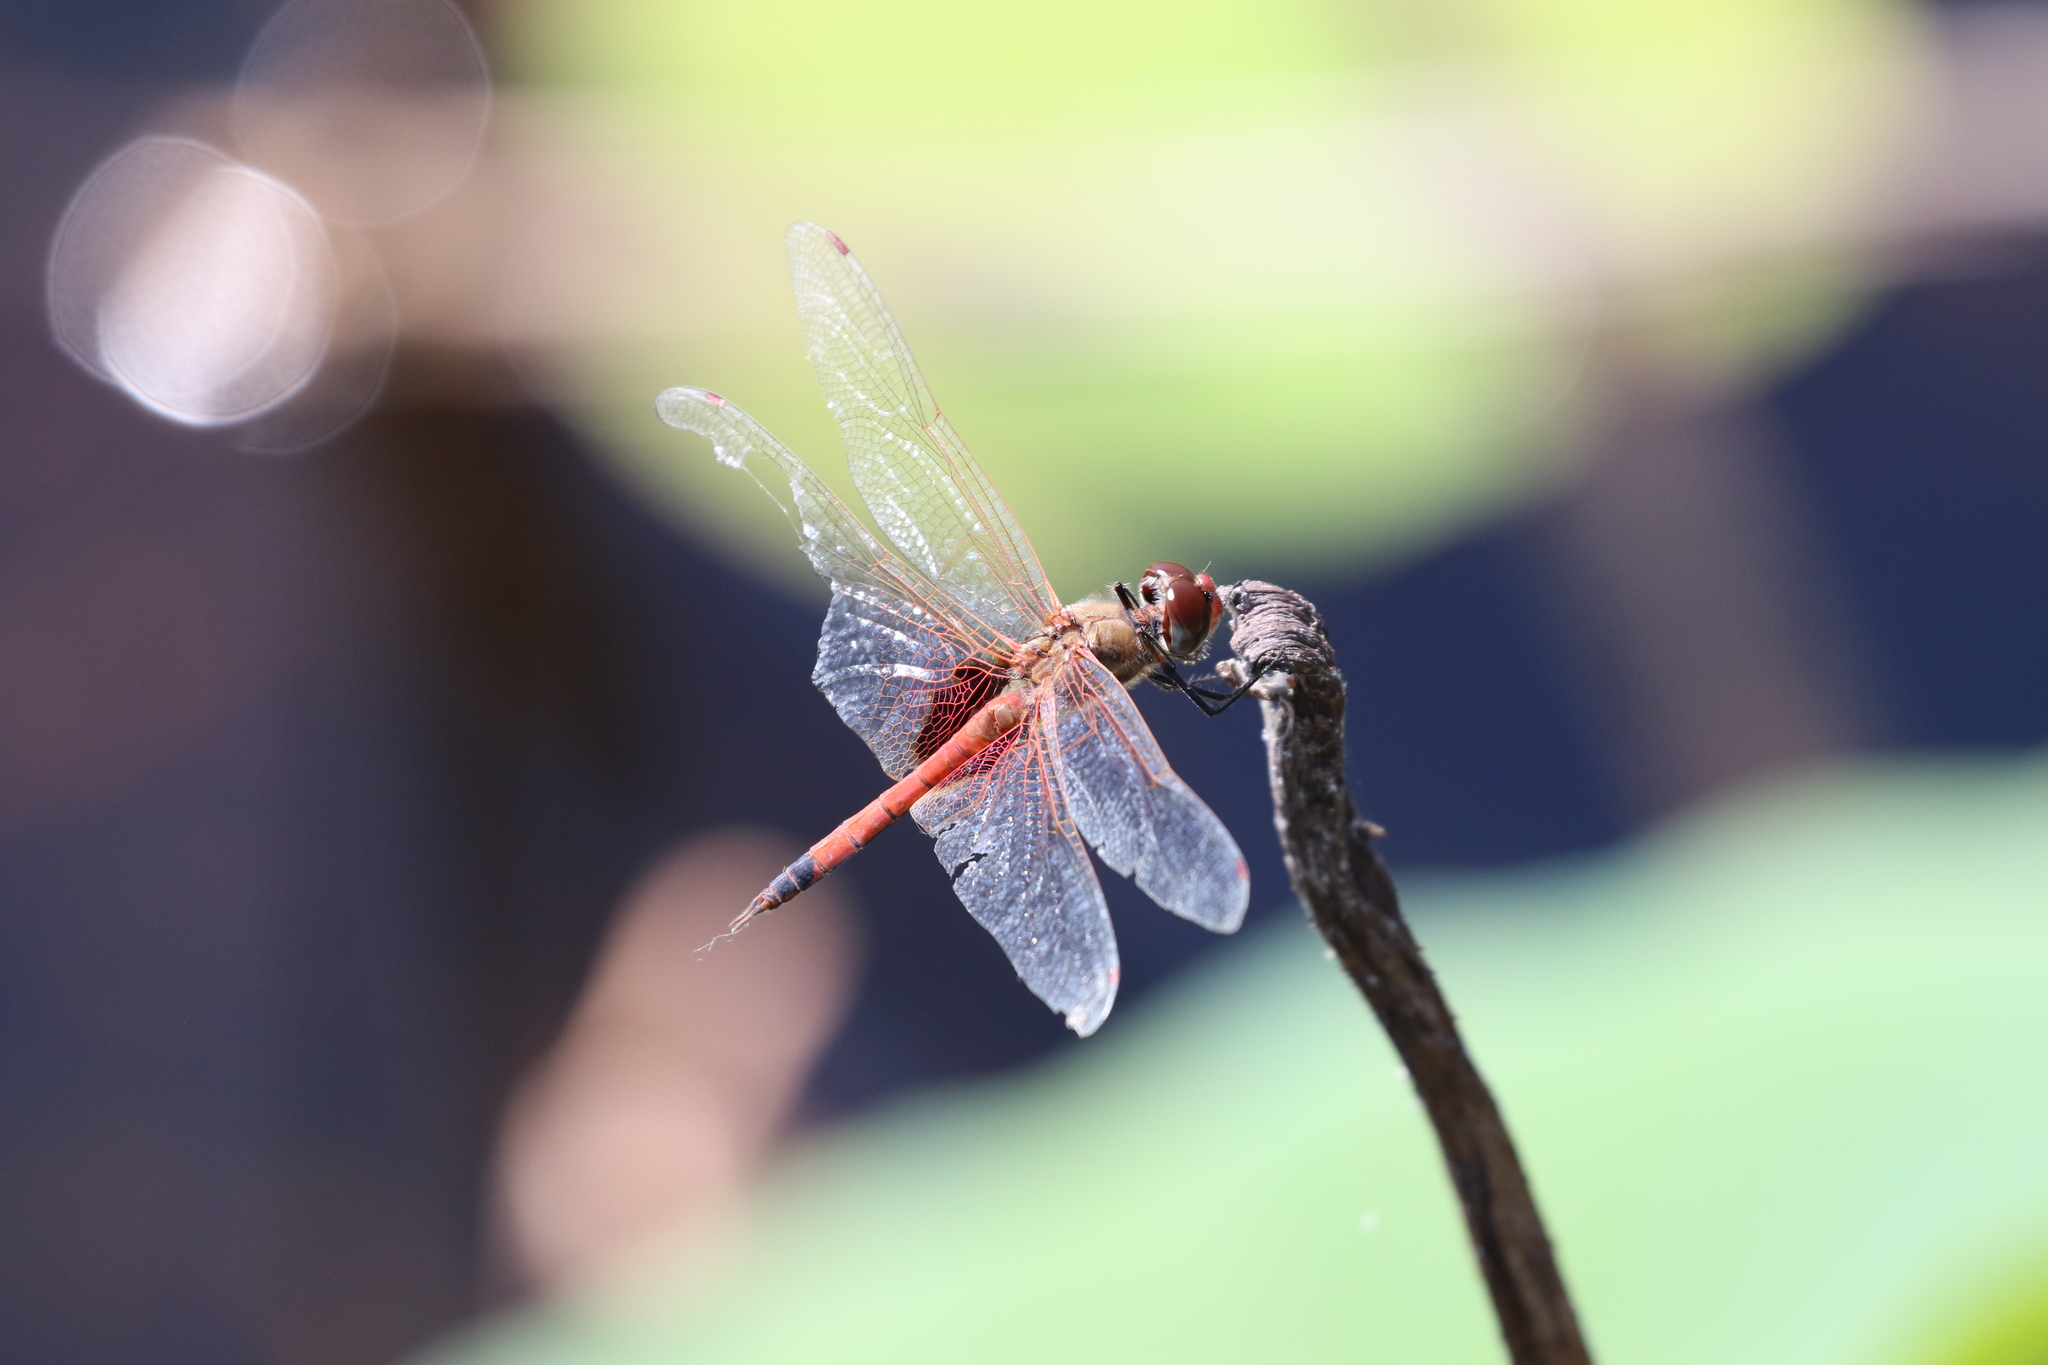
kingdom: Animalia
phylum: Arthropoda
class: Insecta
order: Odonata
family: Libellulidae
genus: Tramea
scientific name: Tramea loewii
